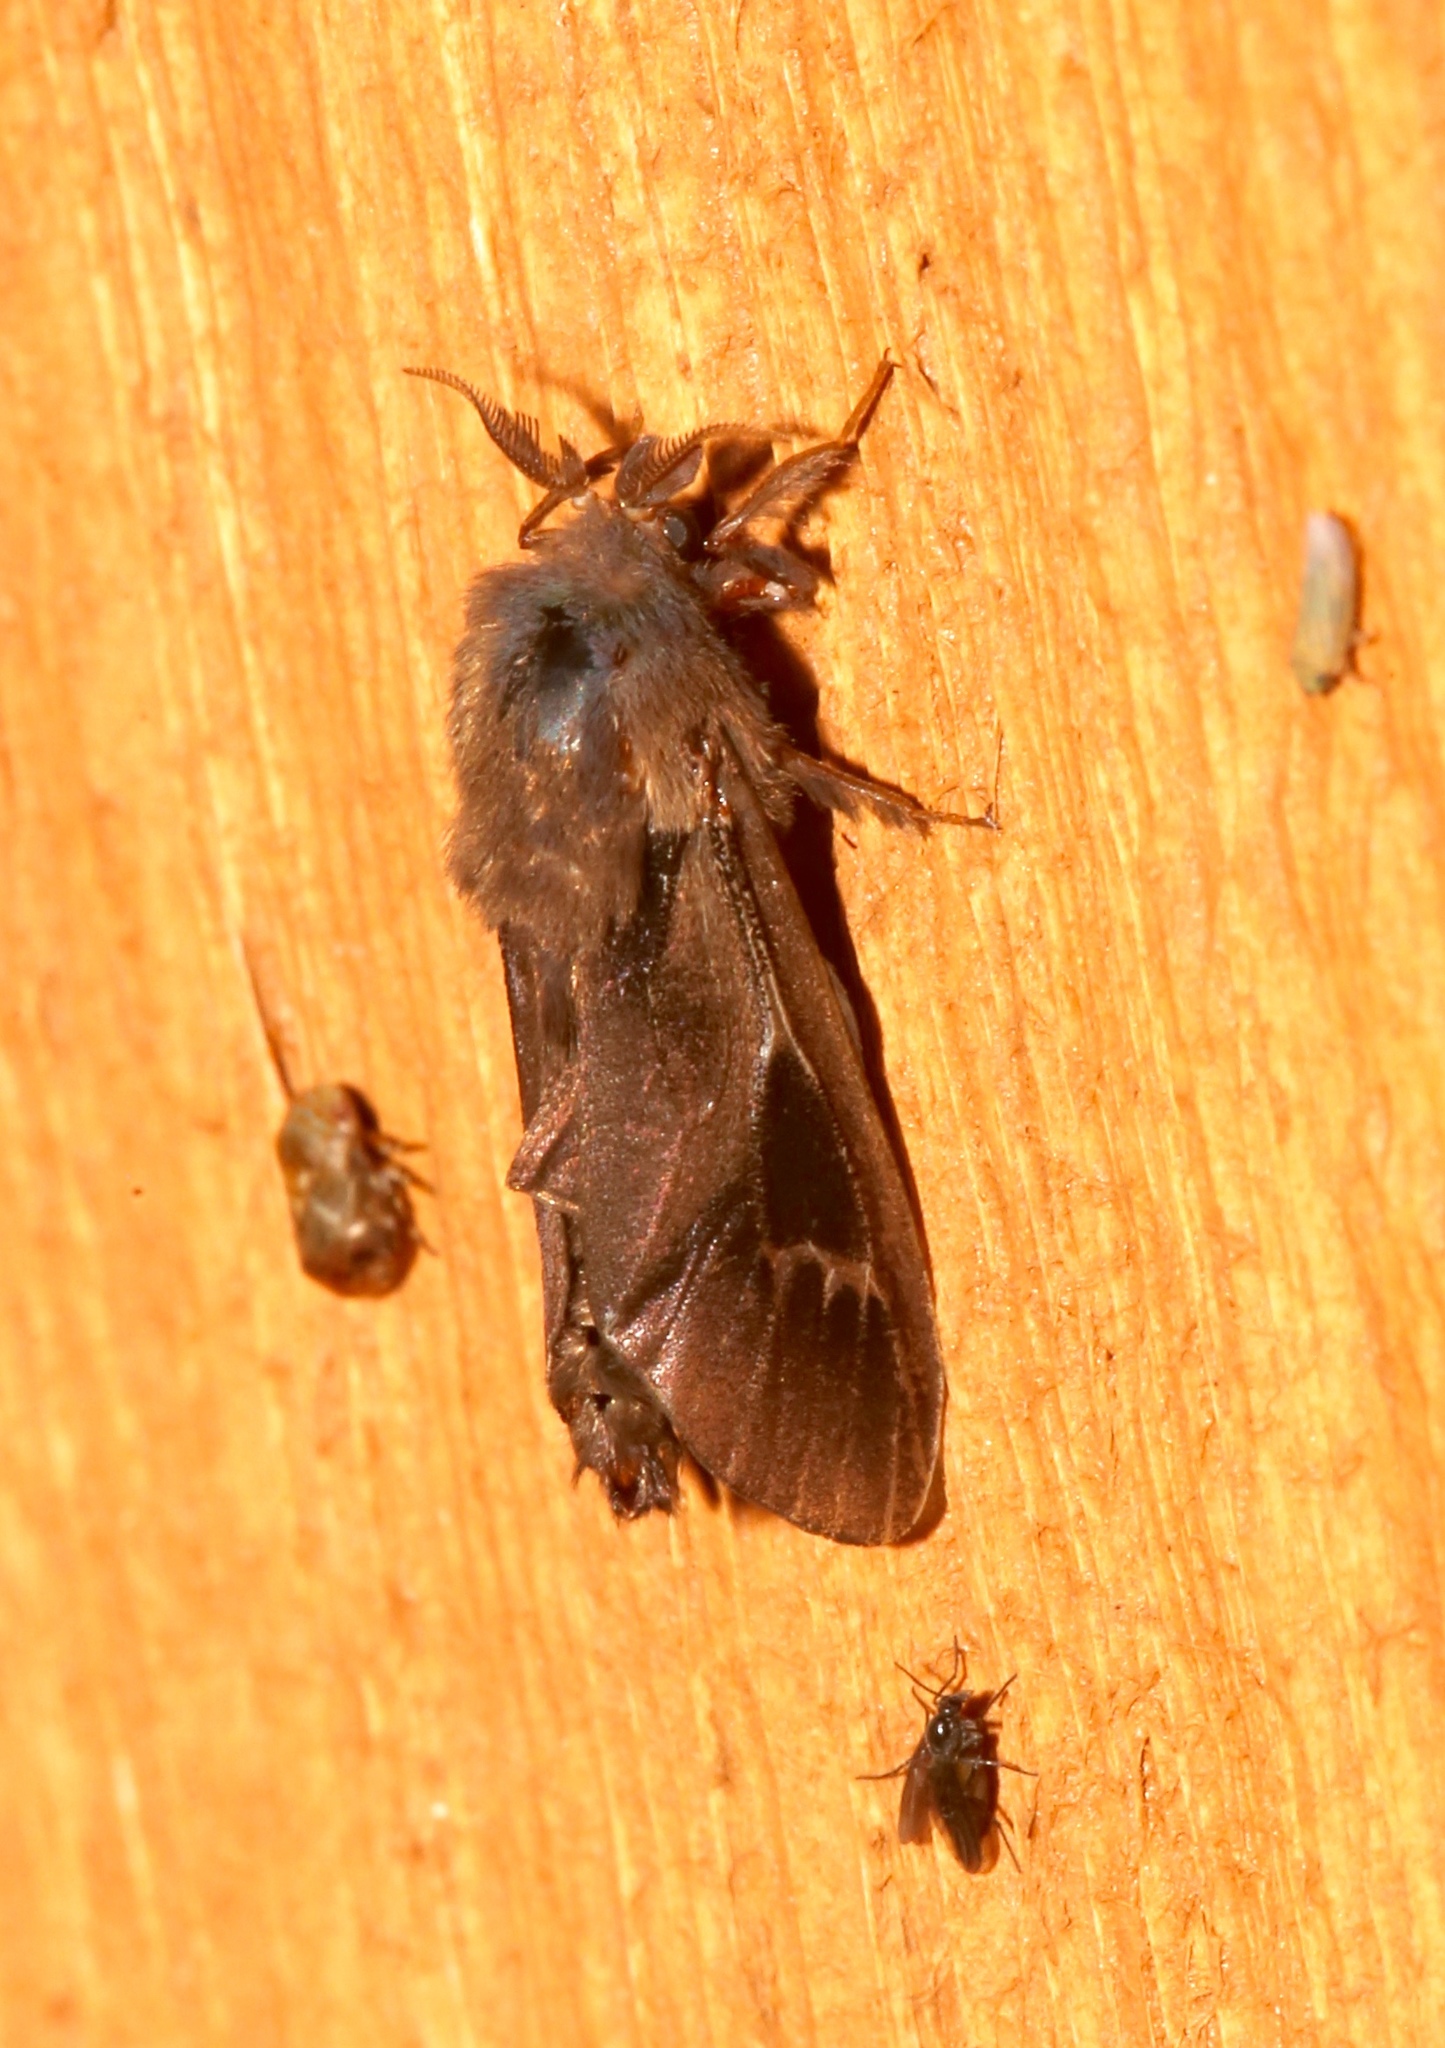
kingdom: Animalia
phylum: Arthropoda
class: Insecta
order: Lepidoptera
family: Psychidae
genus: Oiketicus
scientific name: Oiketicus
